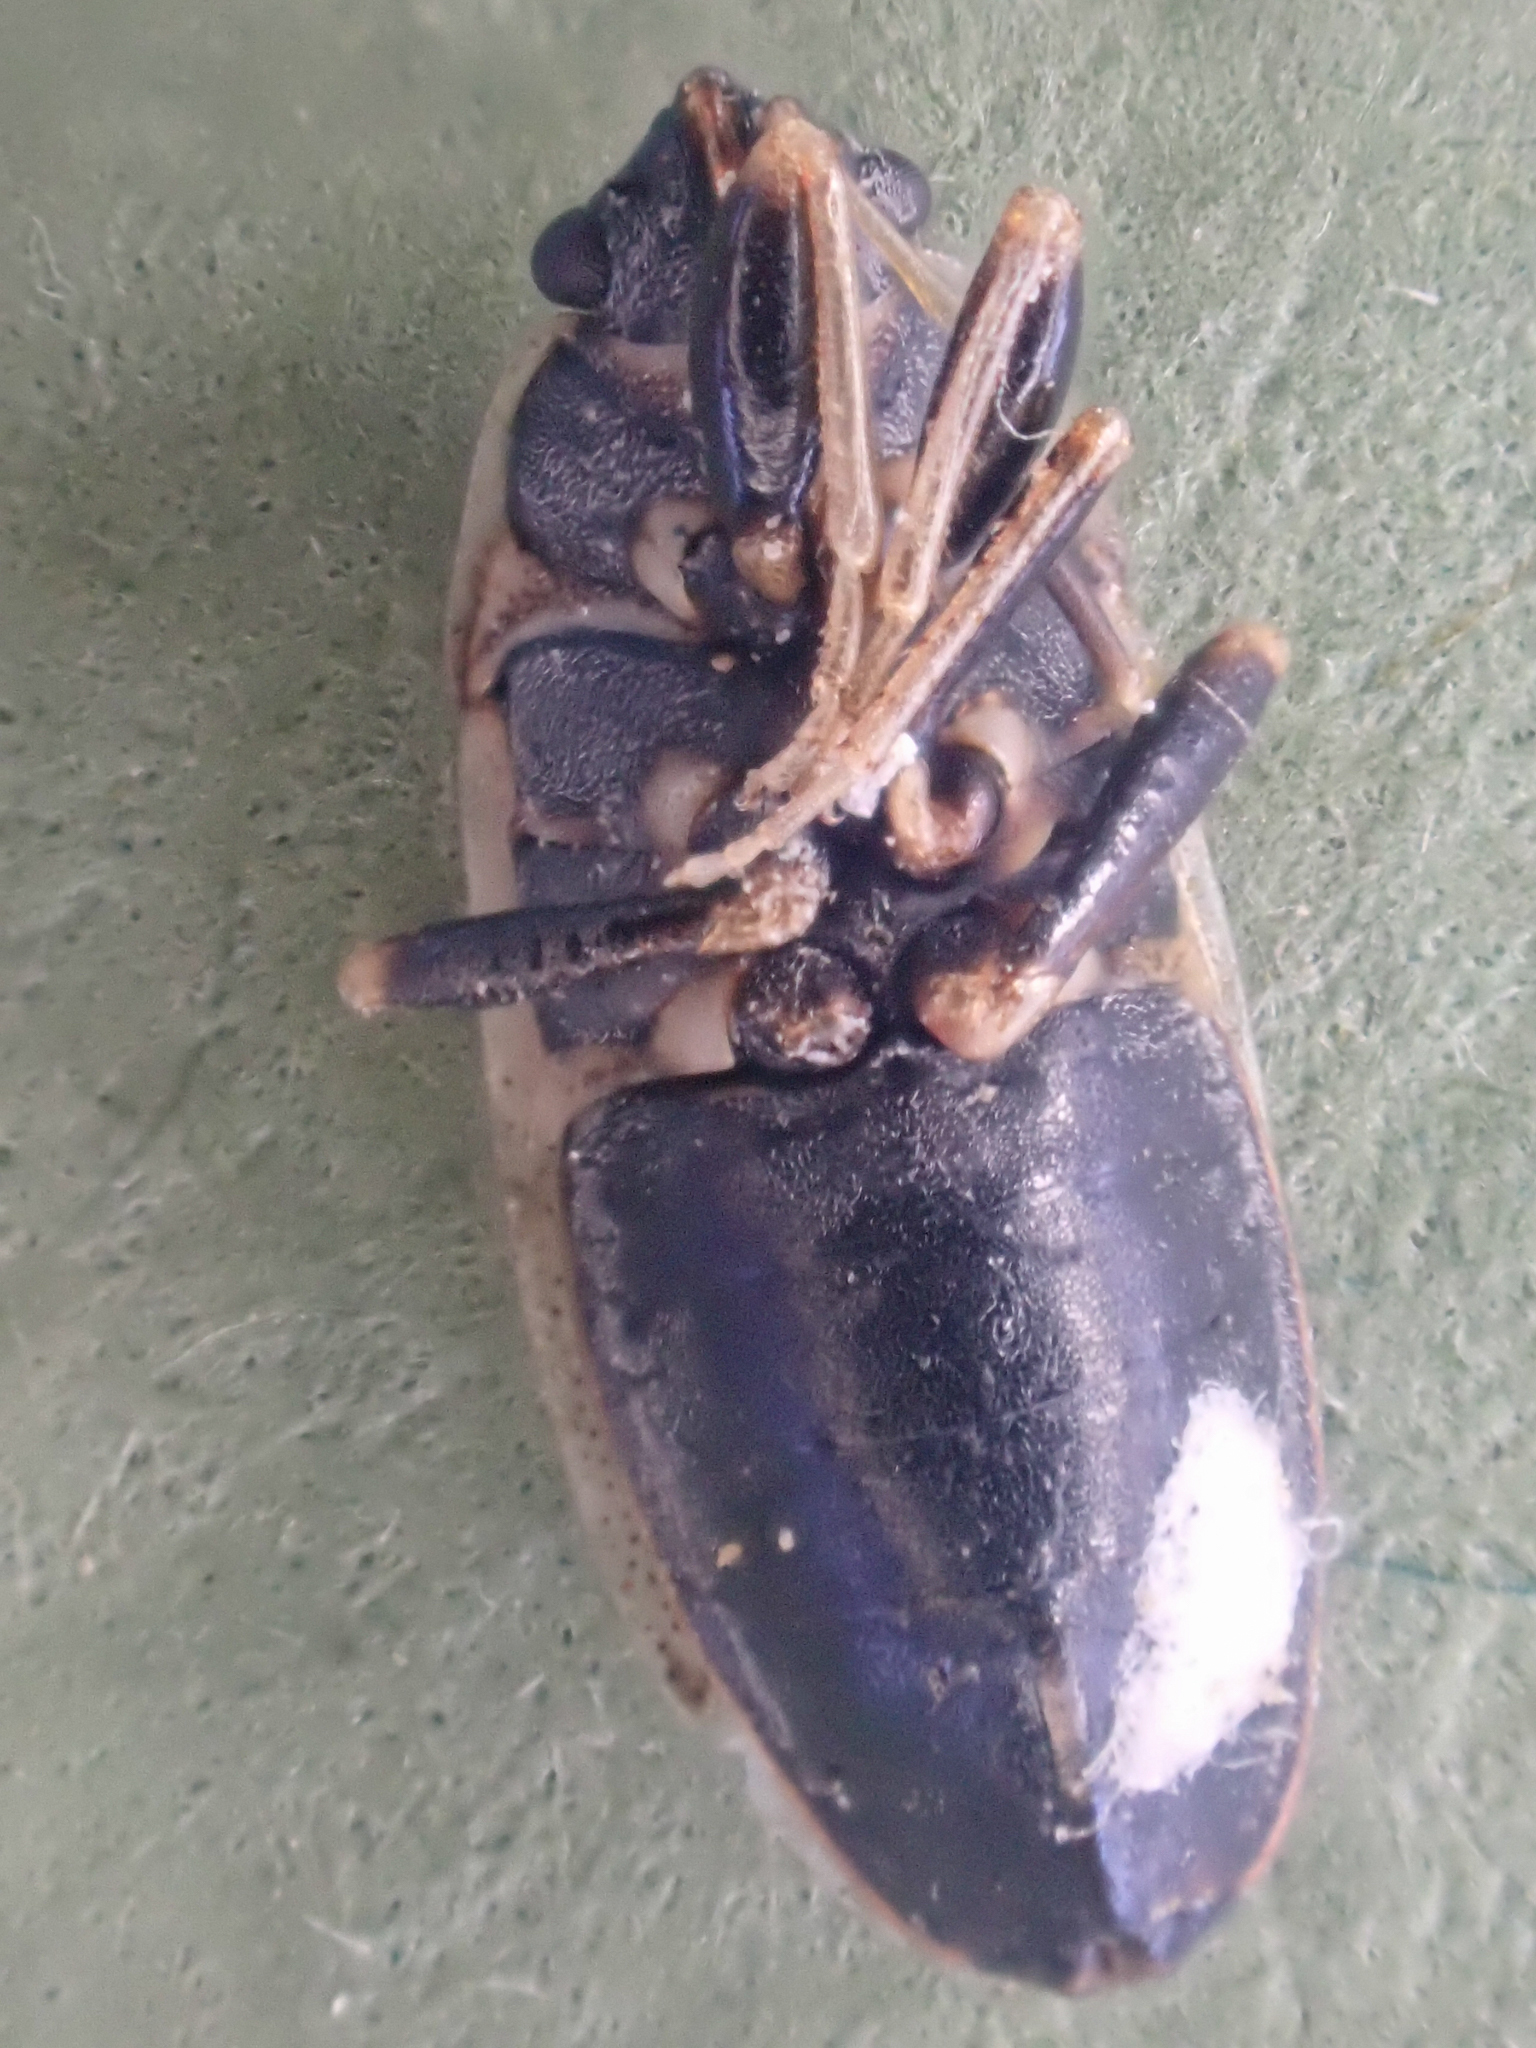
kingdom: Animalia
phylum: Arthropoda
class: Insecta
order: Hemiptera
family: Rhyparochromidae
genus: Sphragisticus
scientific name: Sphragisticus nebulosus
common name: Dirt-colored seed bug
